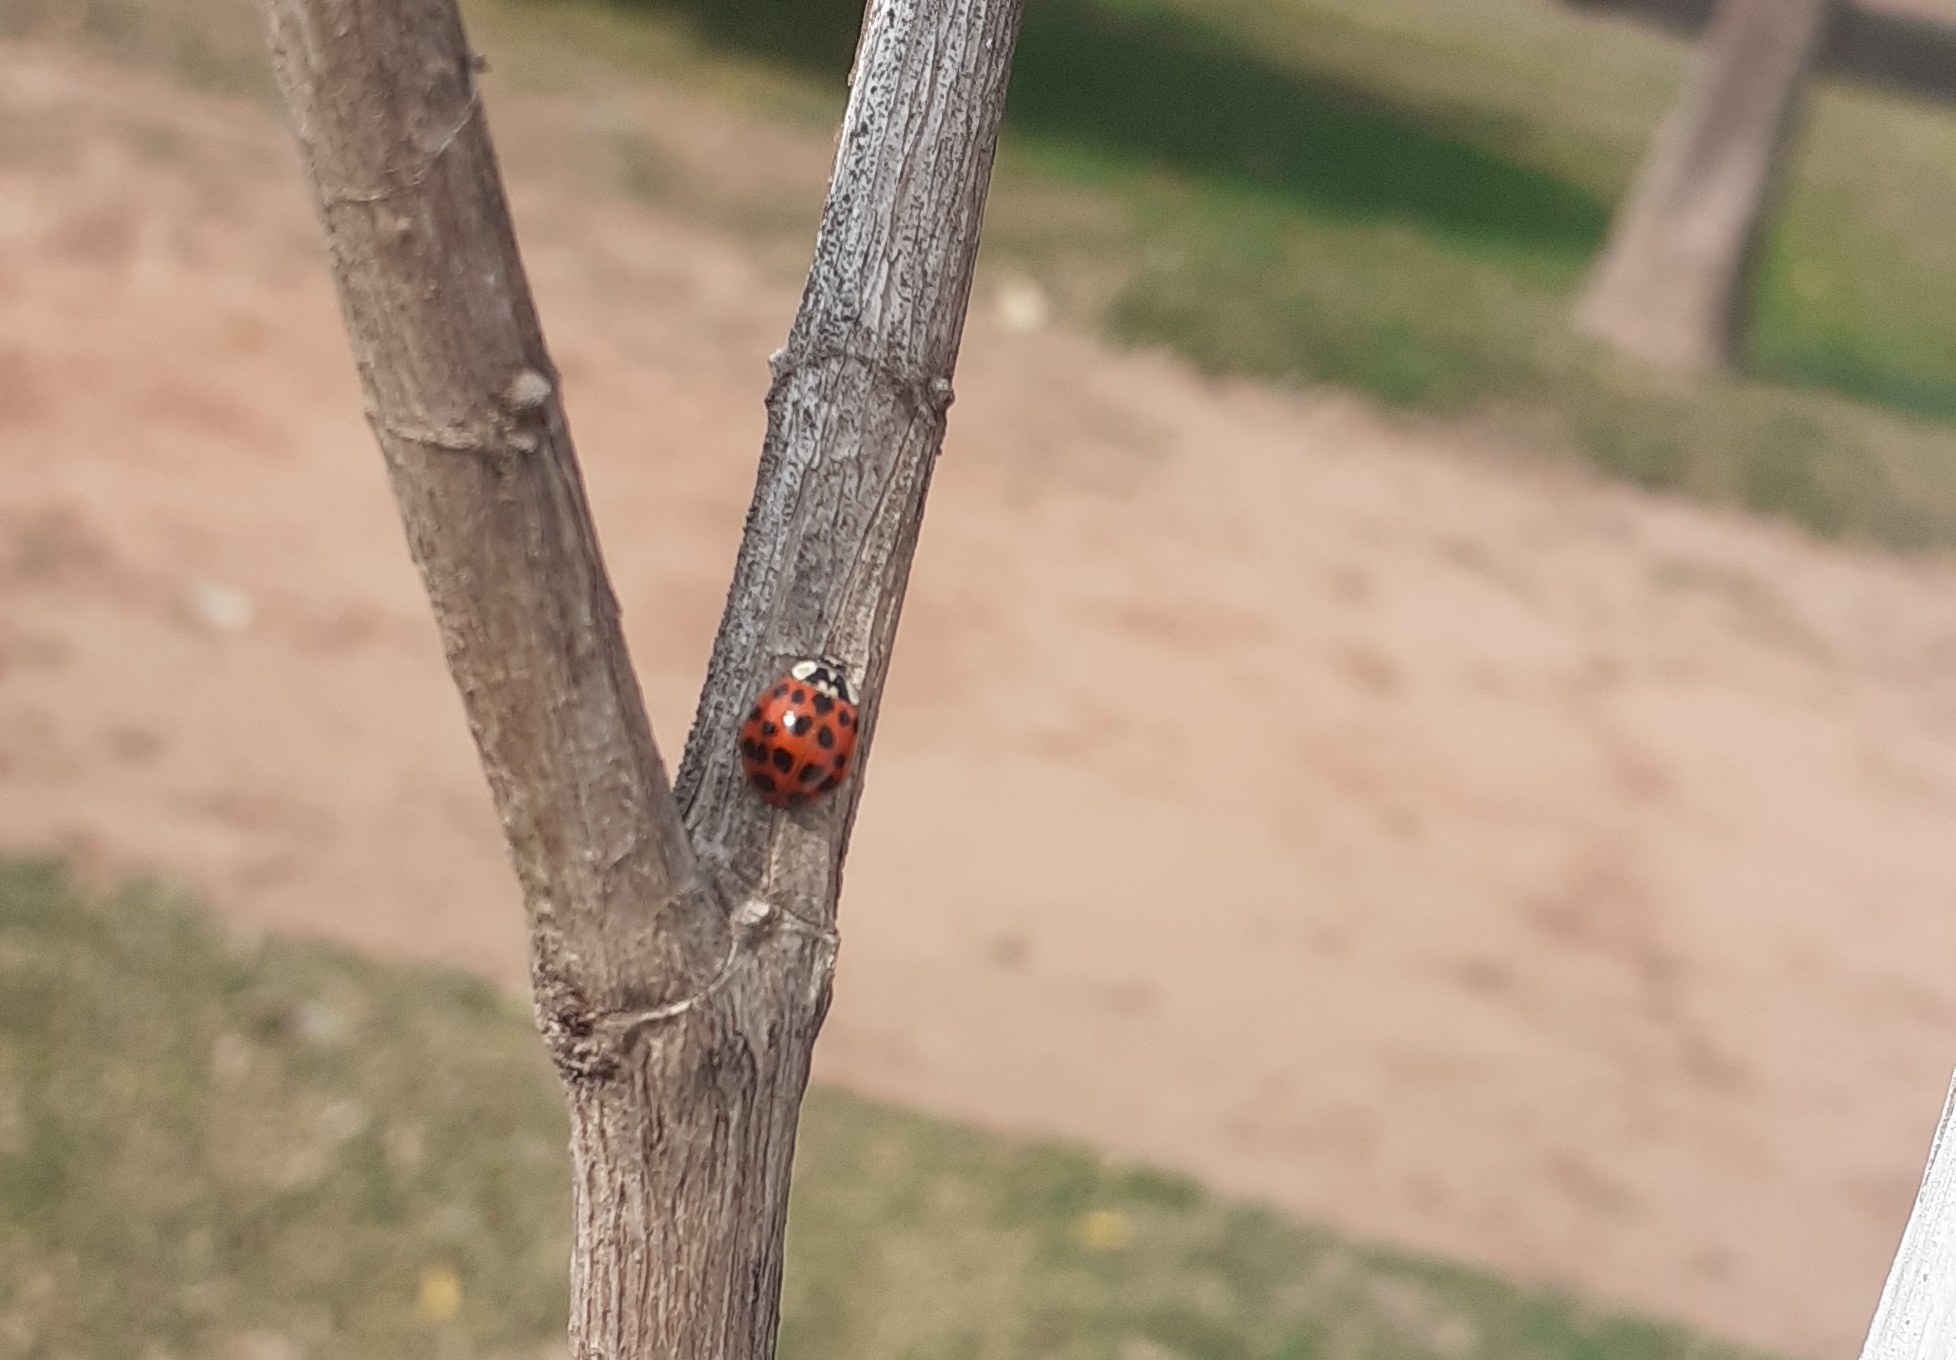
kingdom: Animalia
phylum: Arthropoda
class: Insecta
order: Coleoptera
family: Coccinellidae
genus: Harmonia
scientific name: Harmonia axyridis
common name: Harlequin ladybird
